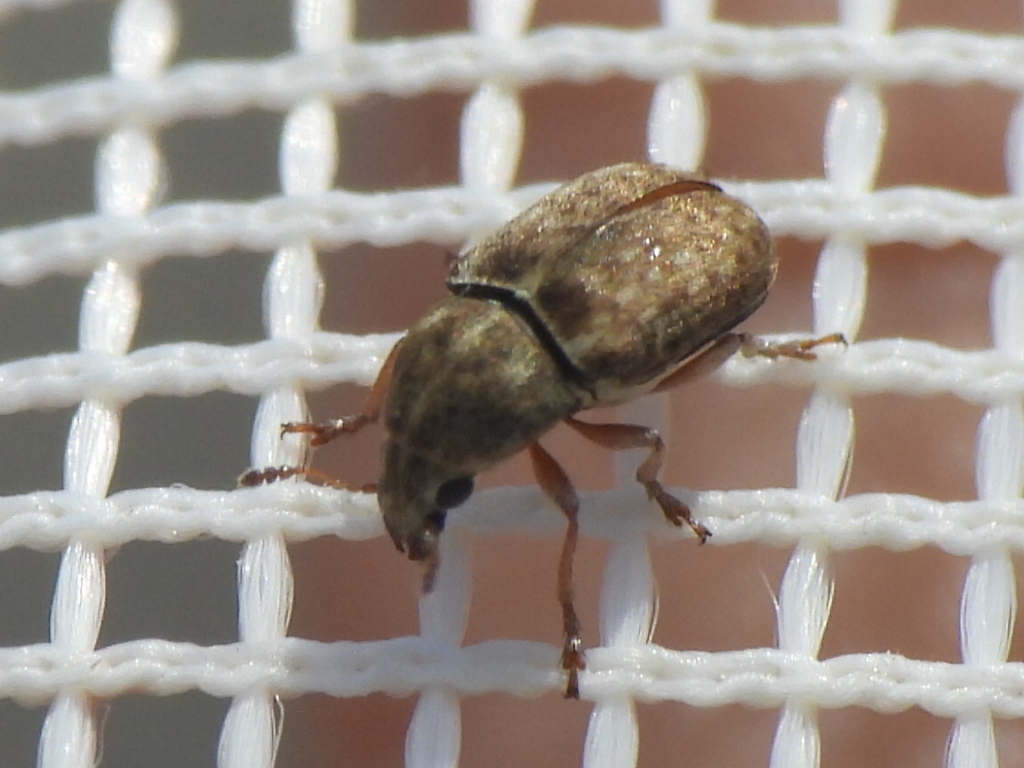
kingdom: Animalia
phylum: Arthropoda
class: Insecta
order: Coleoptera
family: Anthribidae
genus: Trigonorhinus
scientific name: Trigonorhinus limbatus
